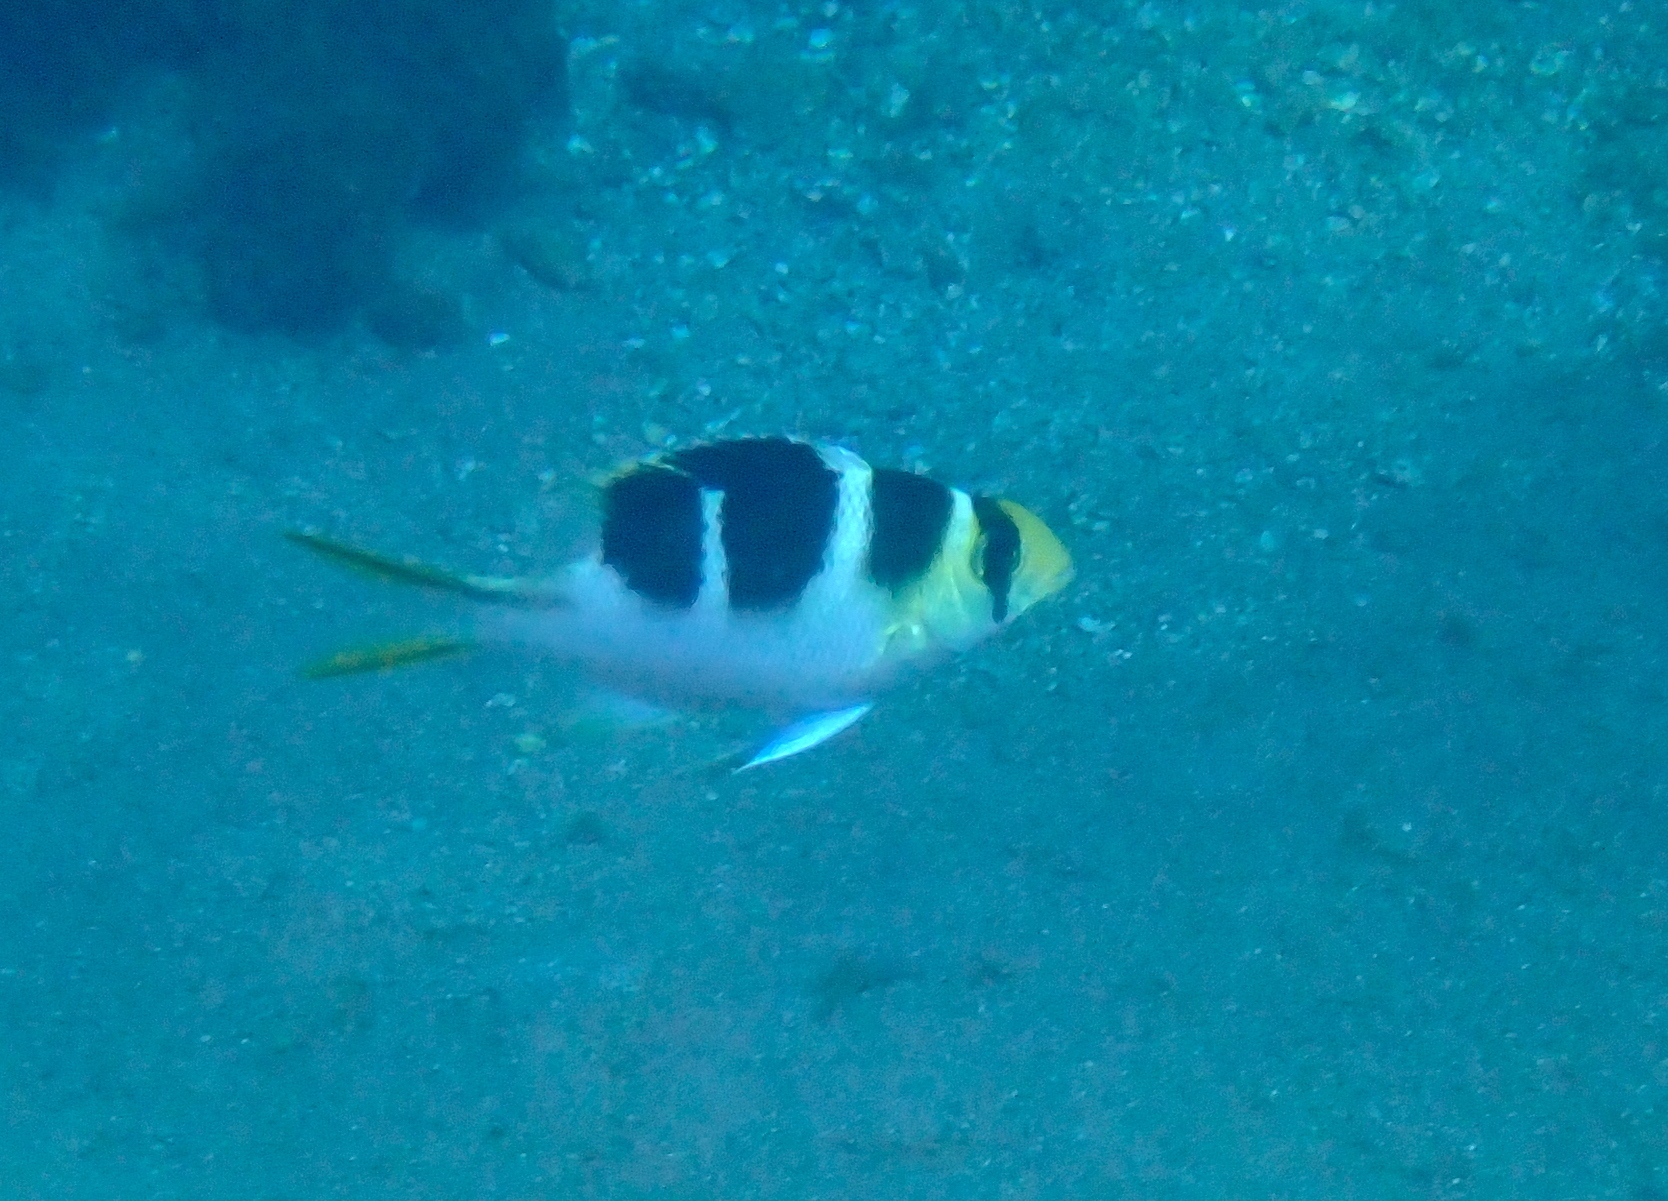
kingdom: Animalia
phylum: Chordata
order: Perciformes
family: Lethrinidae
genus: Monotaxis
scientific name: Monotaxis grandoculis
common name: Bigeye emperor
